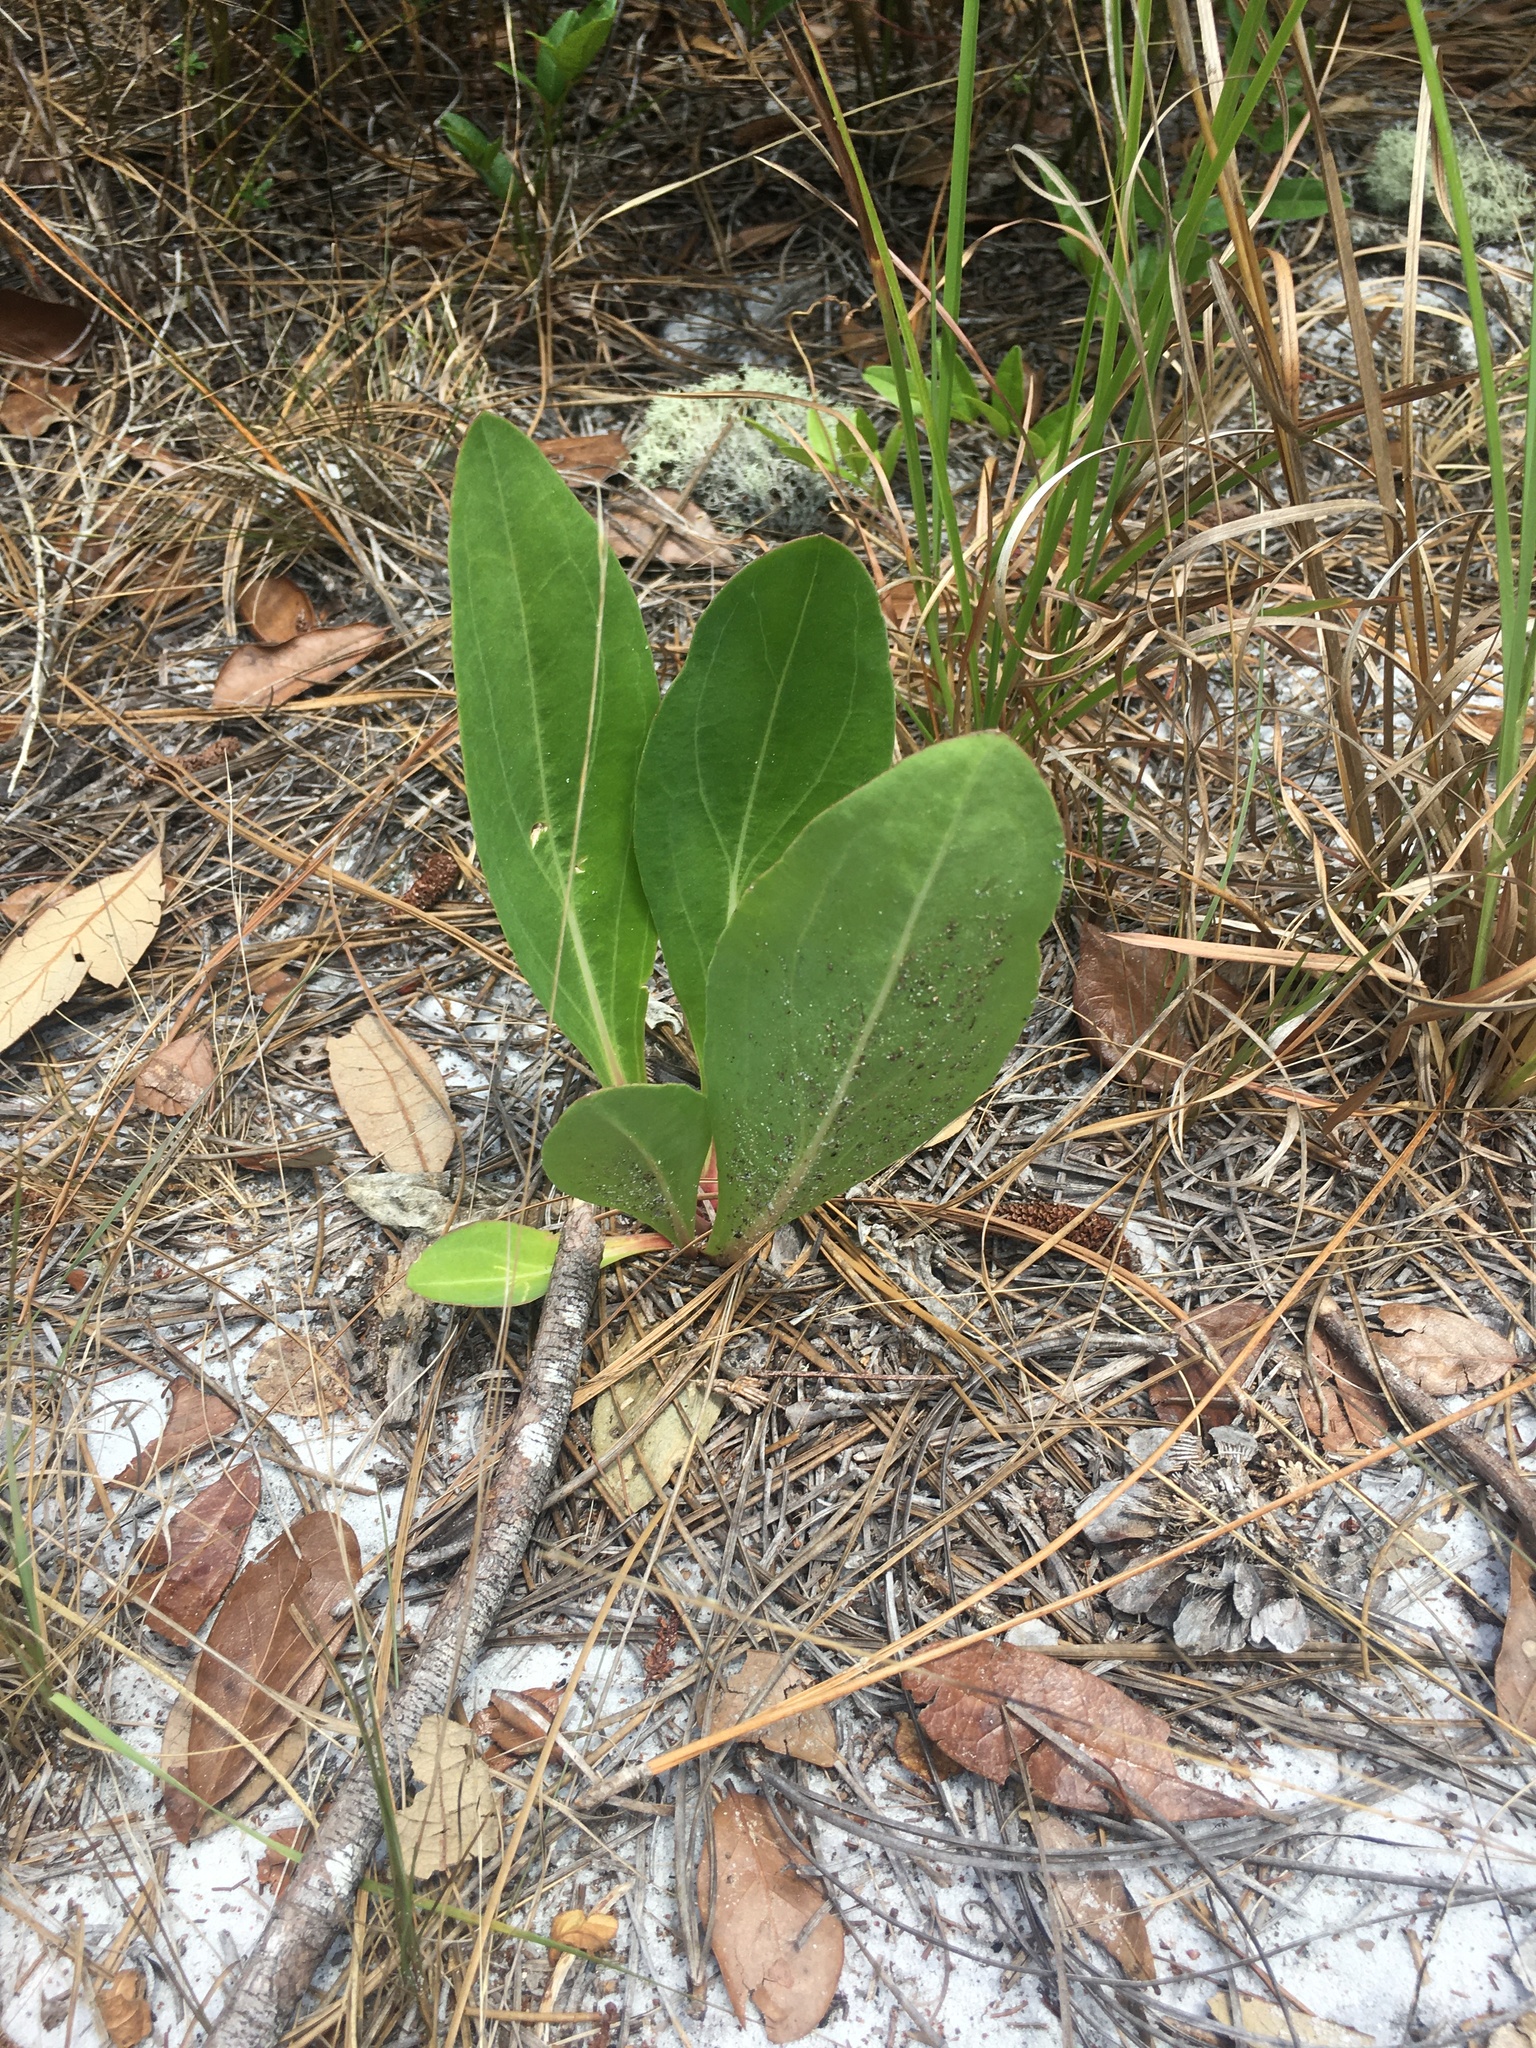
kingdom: Plantae
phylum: Tracheophyta
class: Magnoliopsida
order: Asterales
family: Asteraceae
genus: Carphephorus
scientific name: Carphephorus odoratissimus
